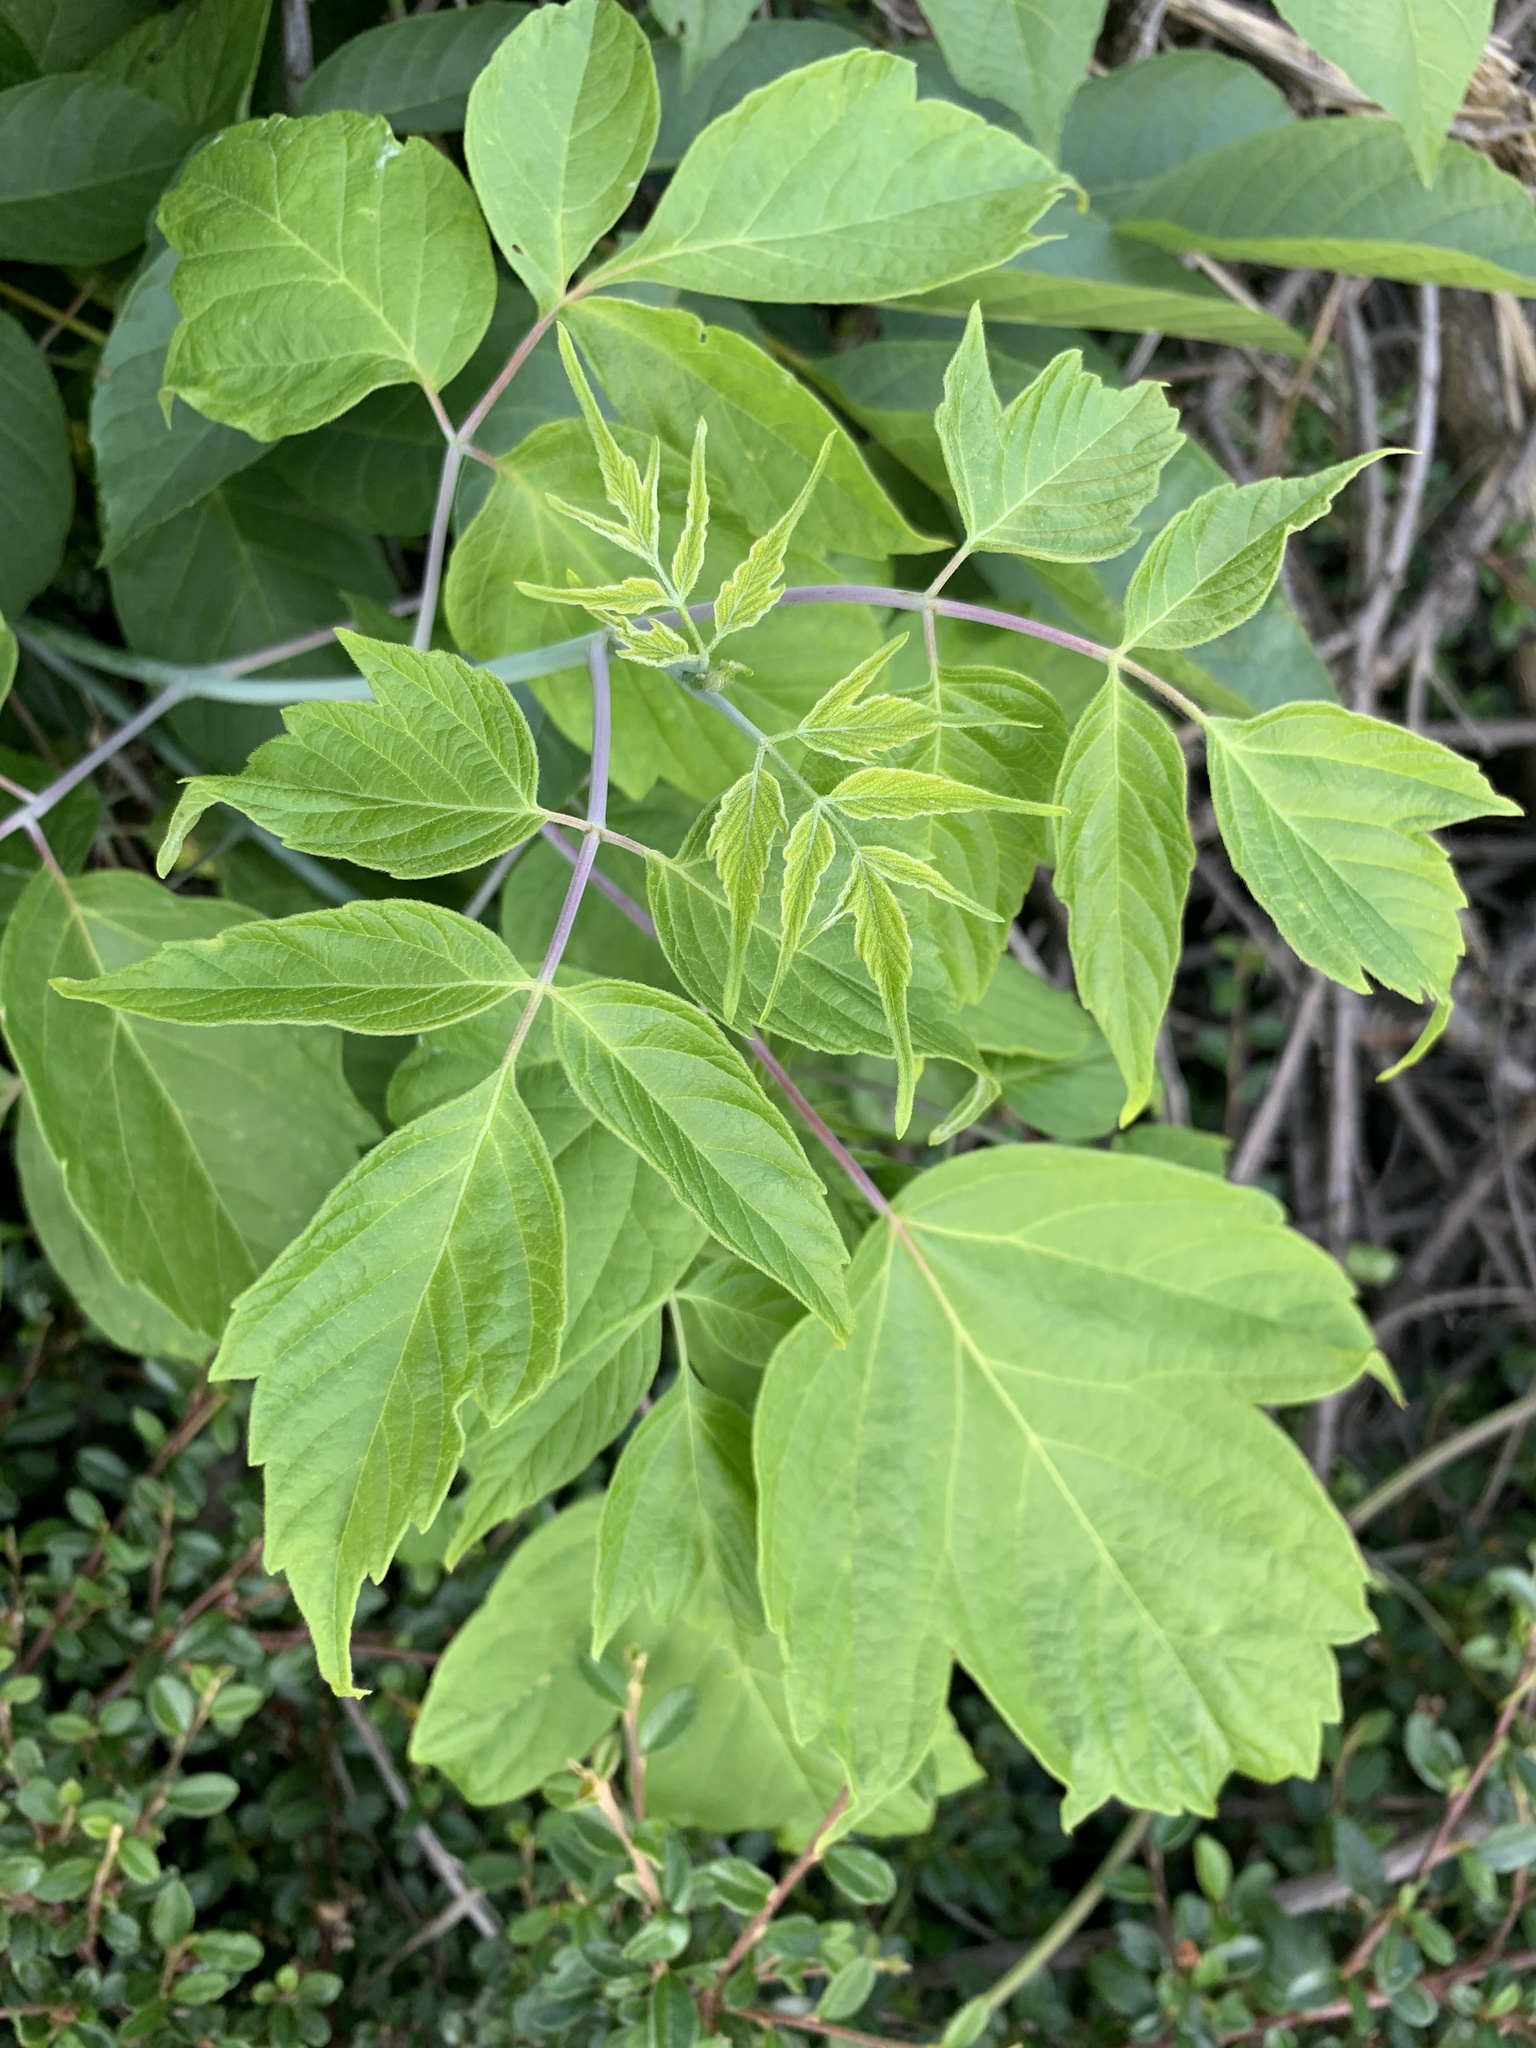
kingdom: Plantae
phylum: Tracheophyta
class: Magnoliopsida
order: Sapindales
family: Sapindaceae
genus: Acer
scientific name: Acer negundo
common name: Ashleaf maple
